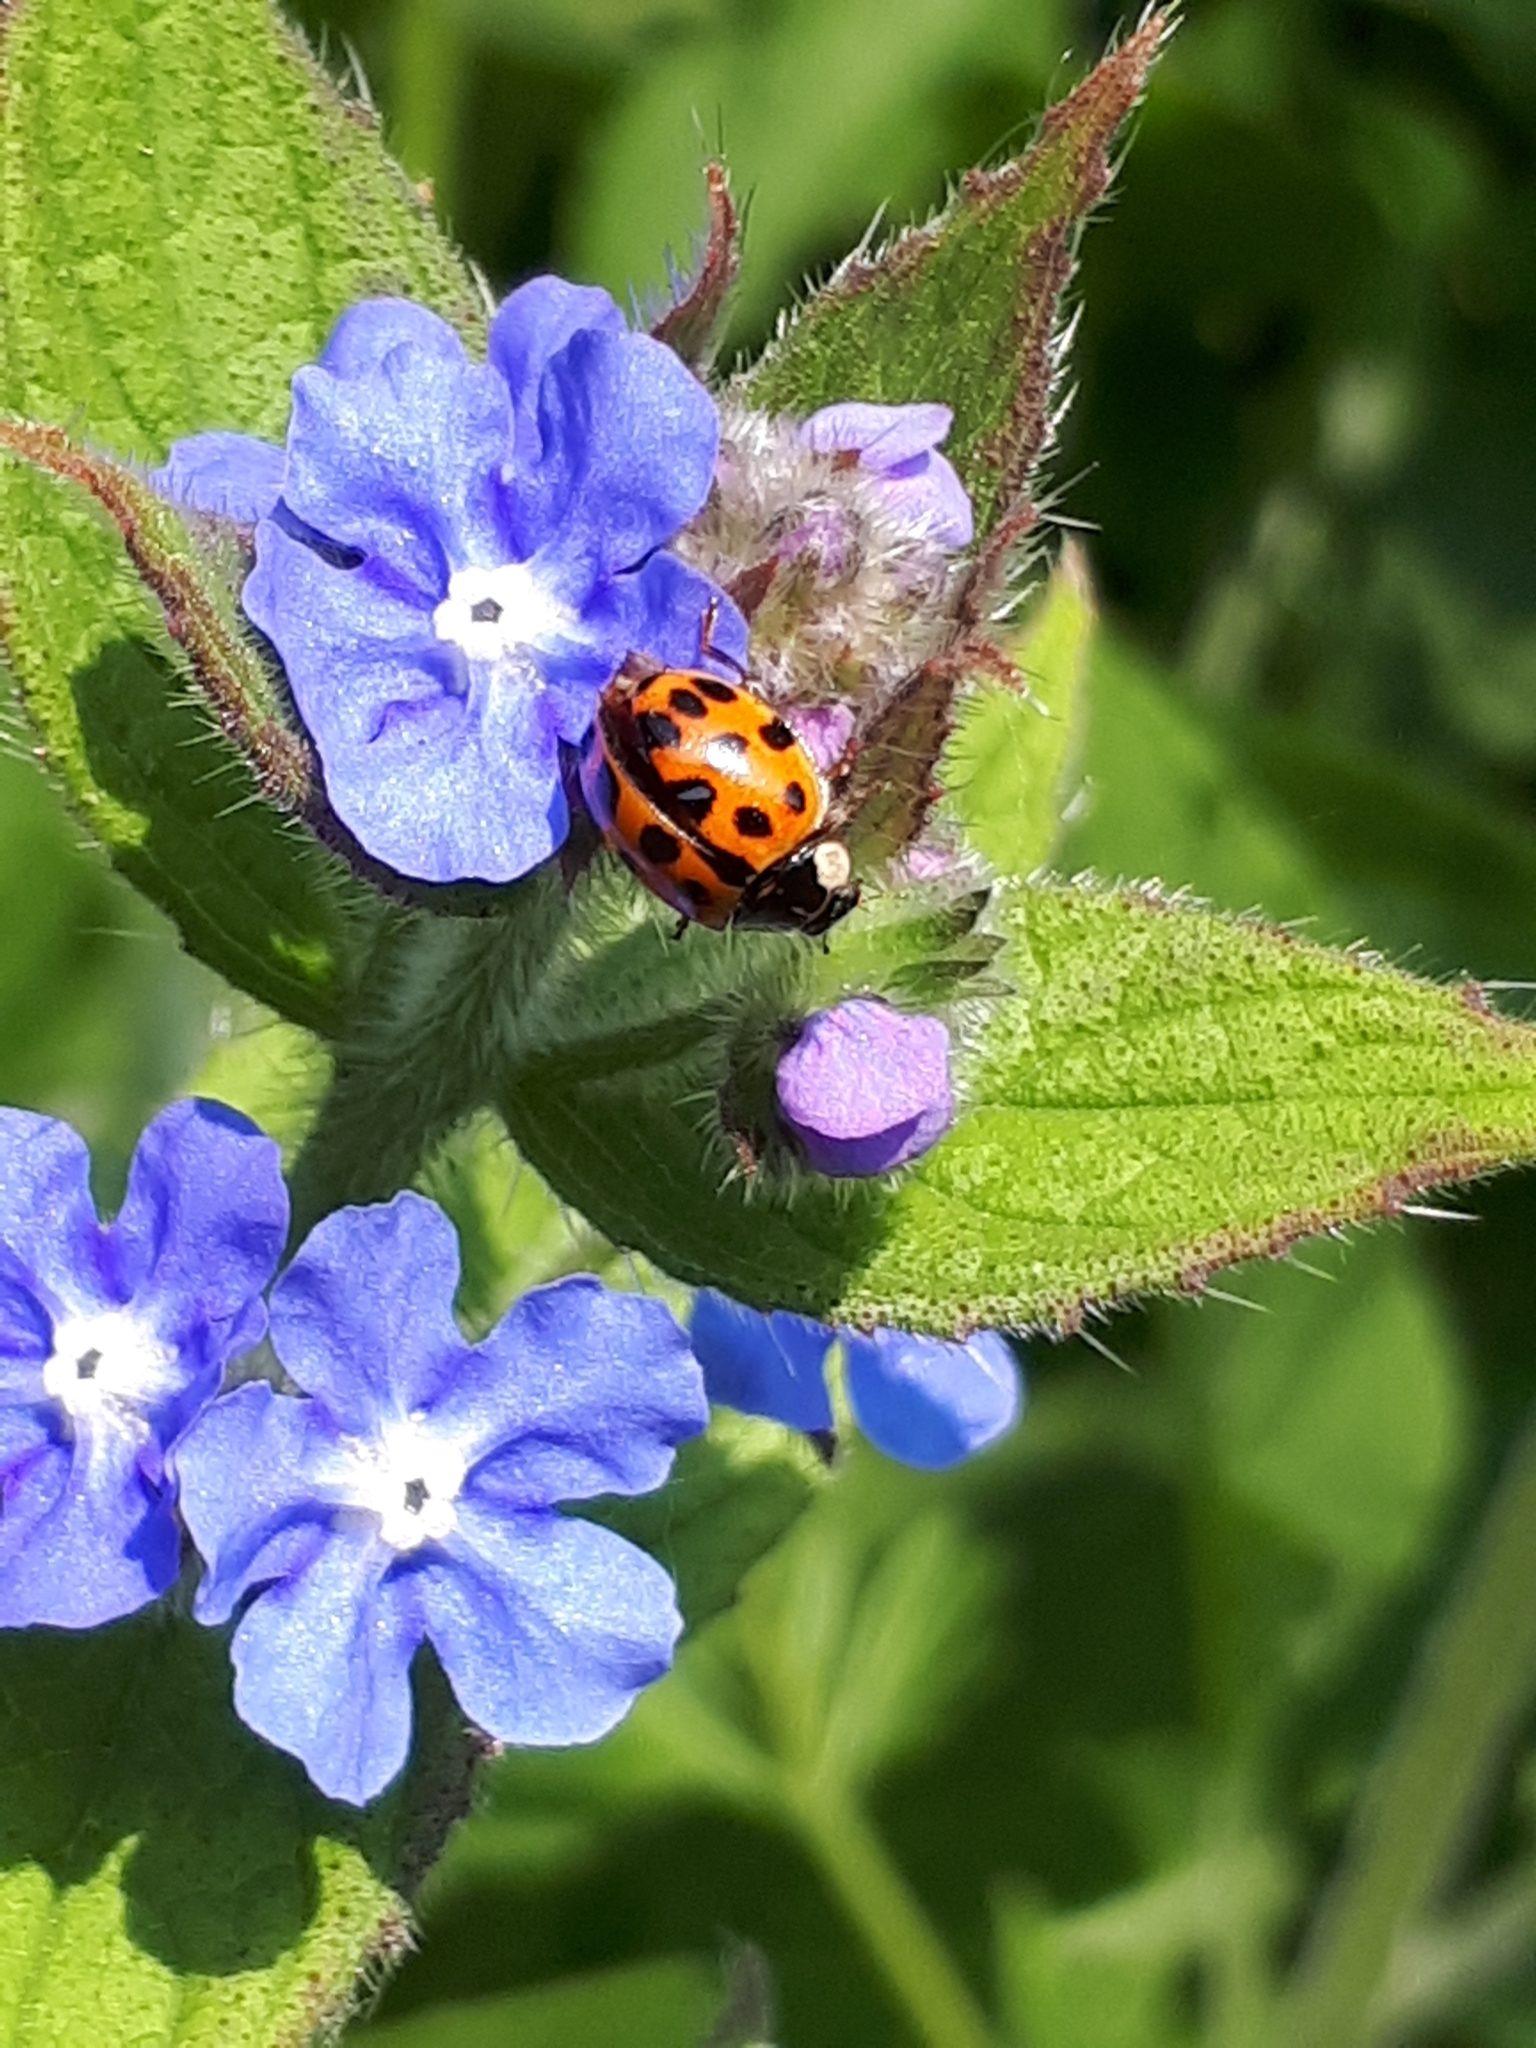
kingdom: Animalia
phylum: Arthropoda
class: Insecta
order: Coleoptera
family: Coccinellidae
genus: Harmonia
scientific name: Harmonia axyridis
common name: Harlequin ladybird
